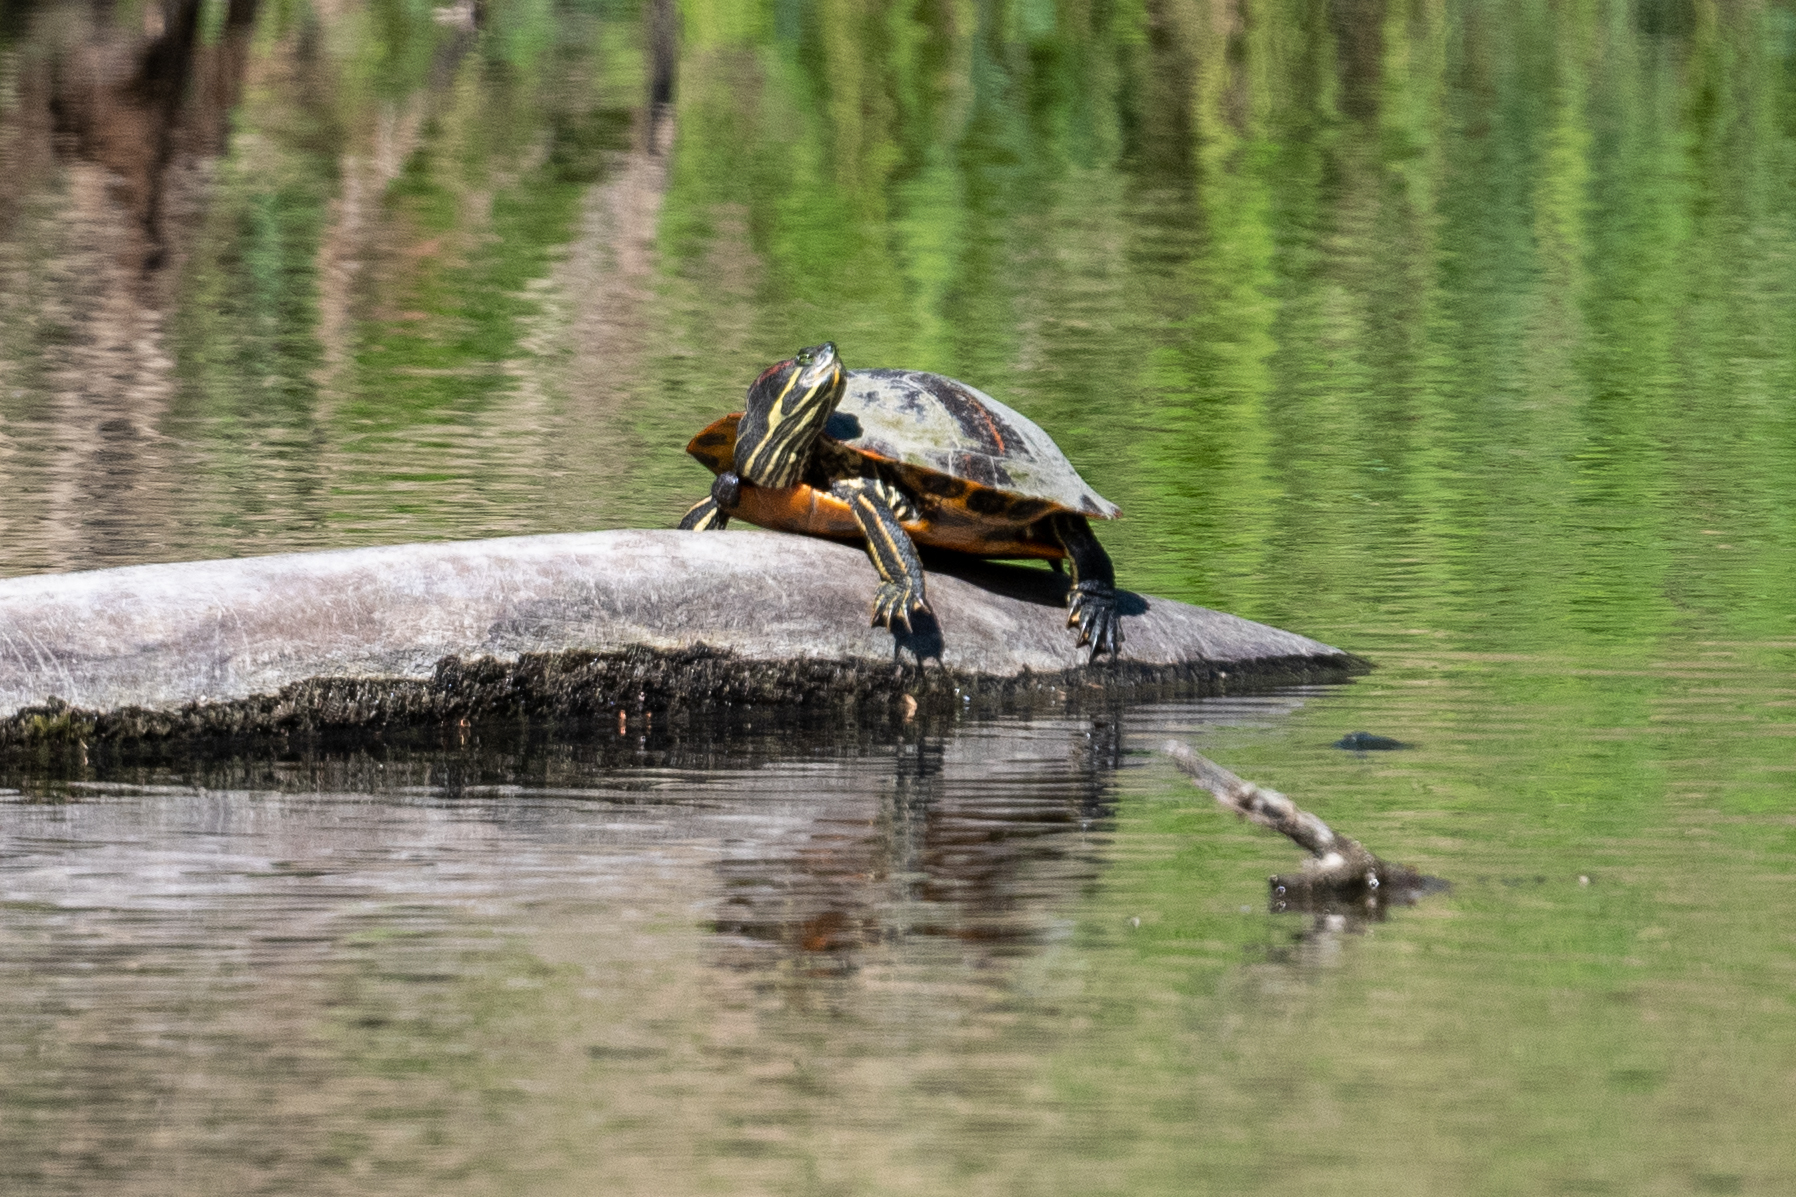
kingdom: Animalia
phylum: Chordata
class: Testudines
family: Emydidae
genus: Trachemys
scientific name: Trachemys scripta
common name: Slider
